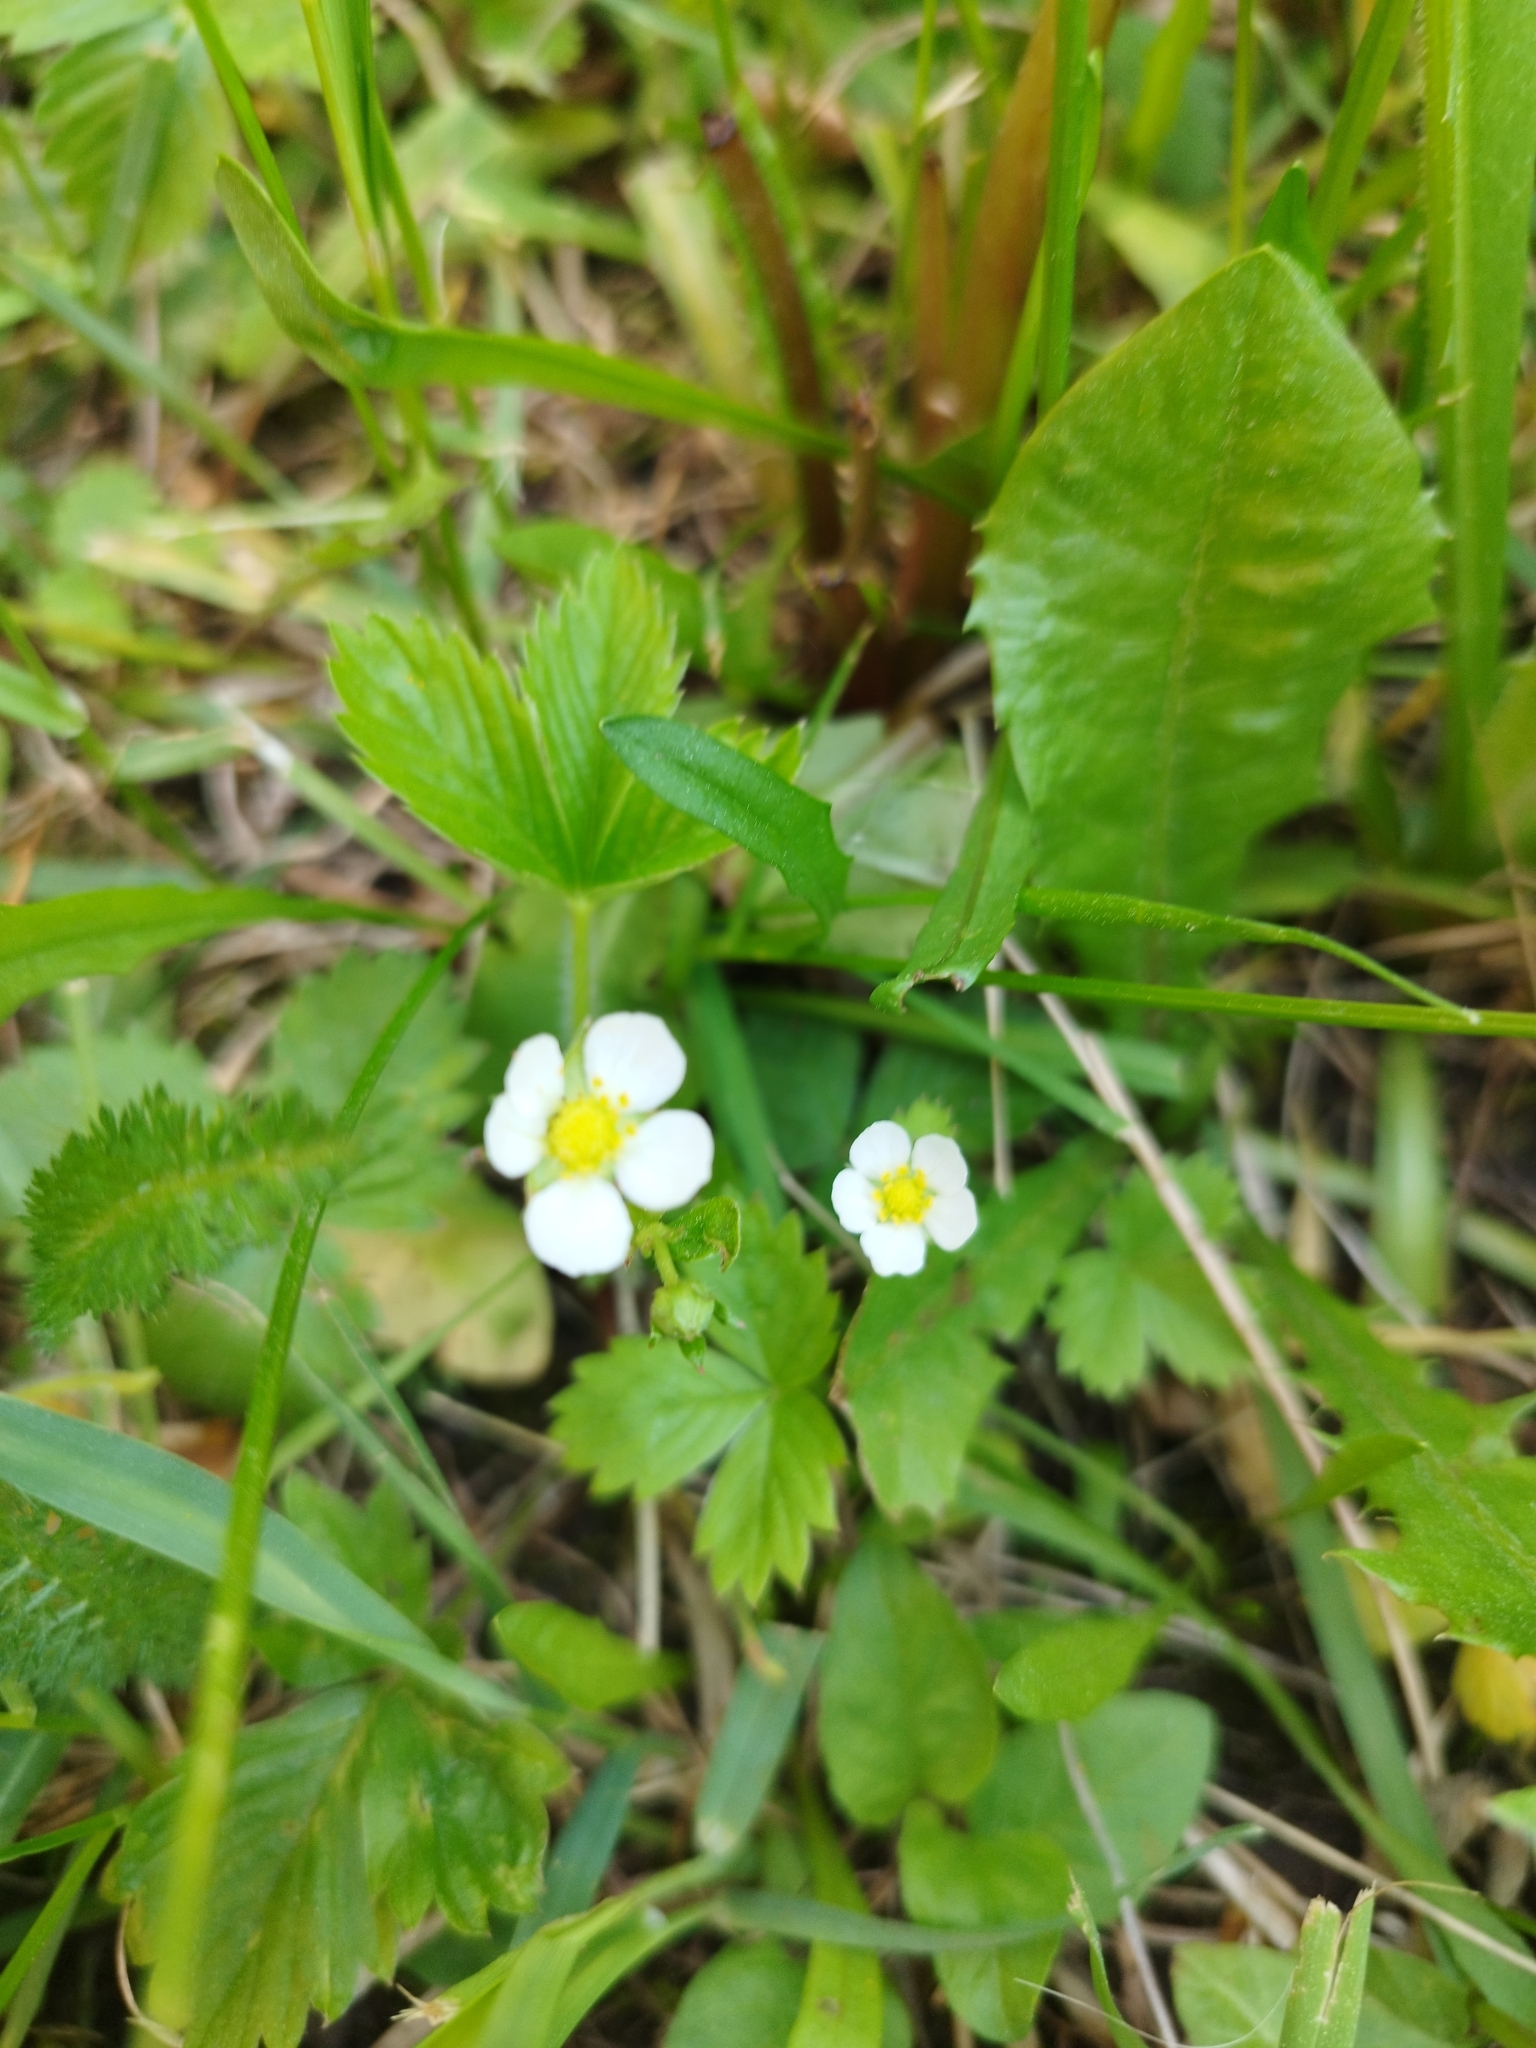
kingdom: Plantae
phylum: Tracheophyta
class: Magnoliopsida
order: Rosales
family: Rosaceae
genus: Fragaria
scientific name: Fragaria vesca
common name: Wild strawberry
